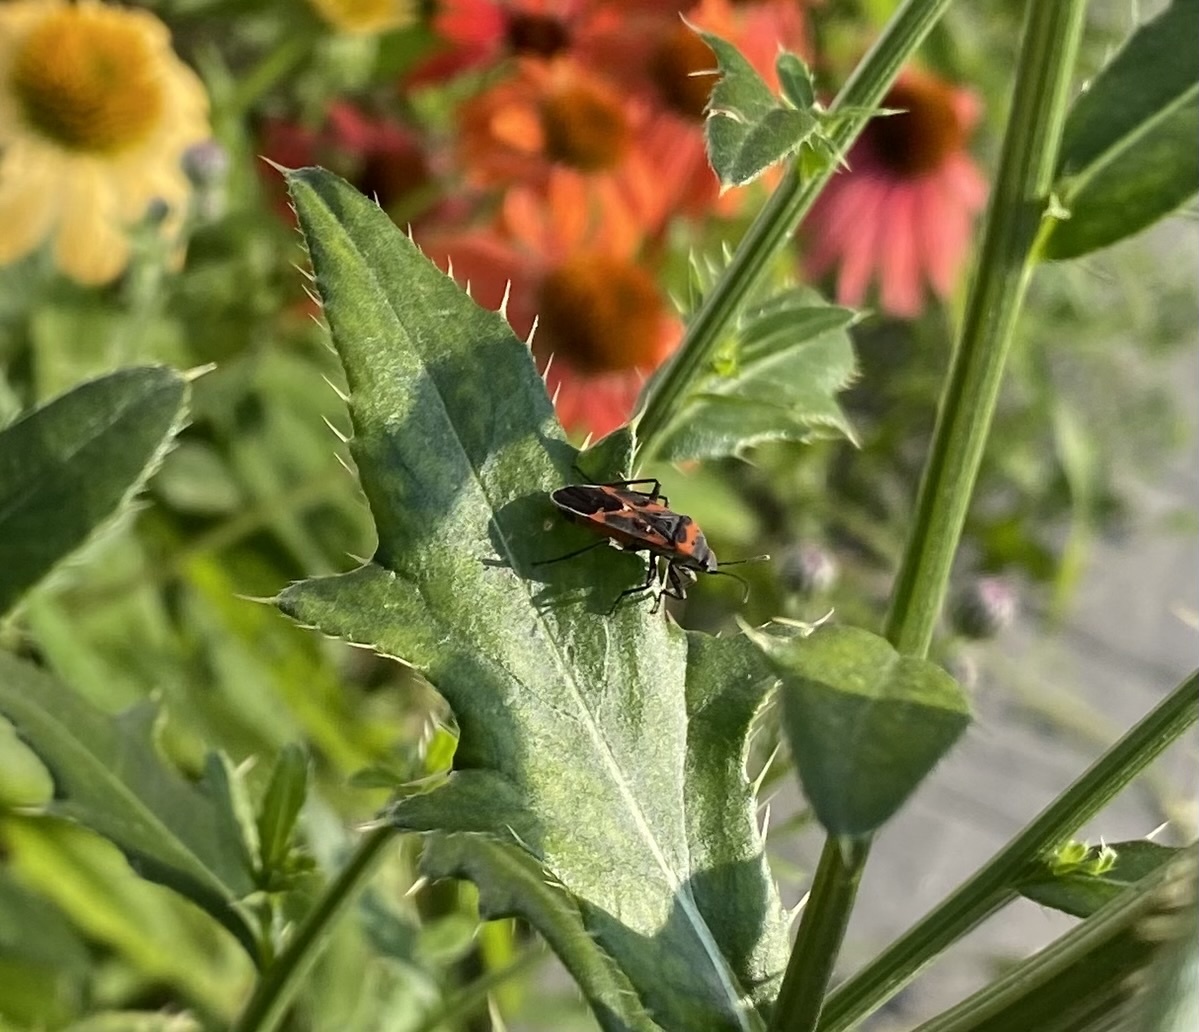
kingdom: Animalia
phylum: Arthropoda
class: Insecta
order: Hemiptera
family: Lygaeidae
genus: Lygaeus
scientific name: Lygaeus kalmii
